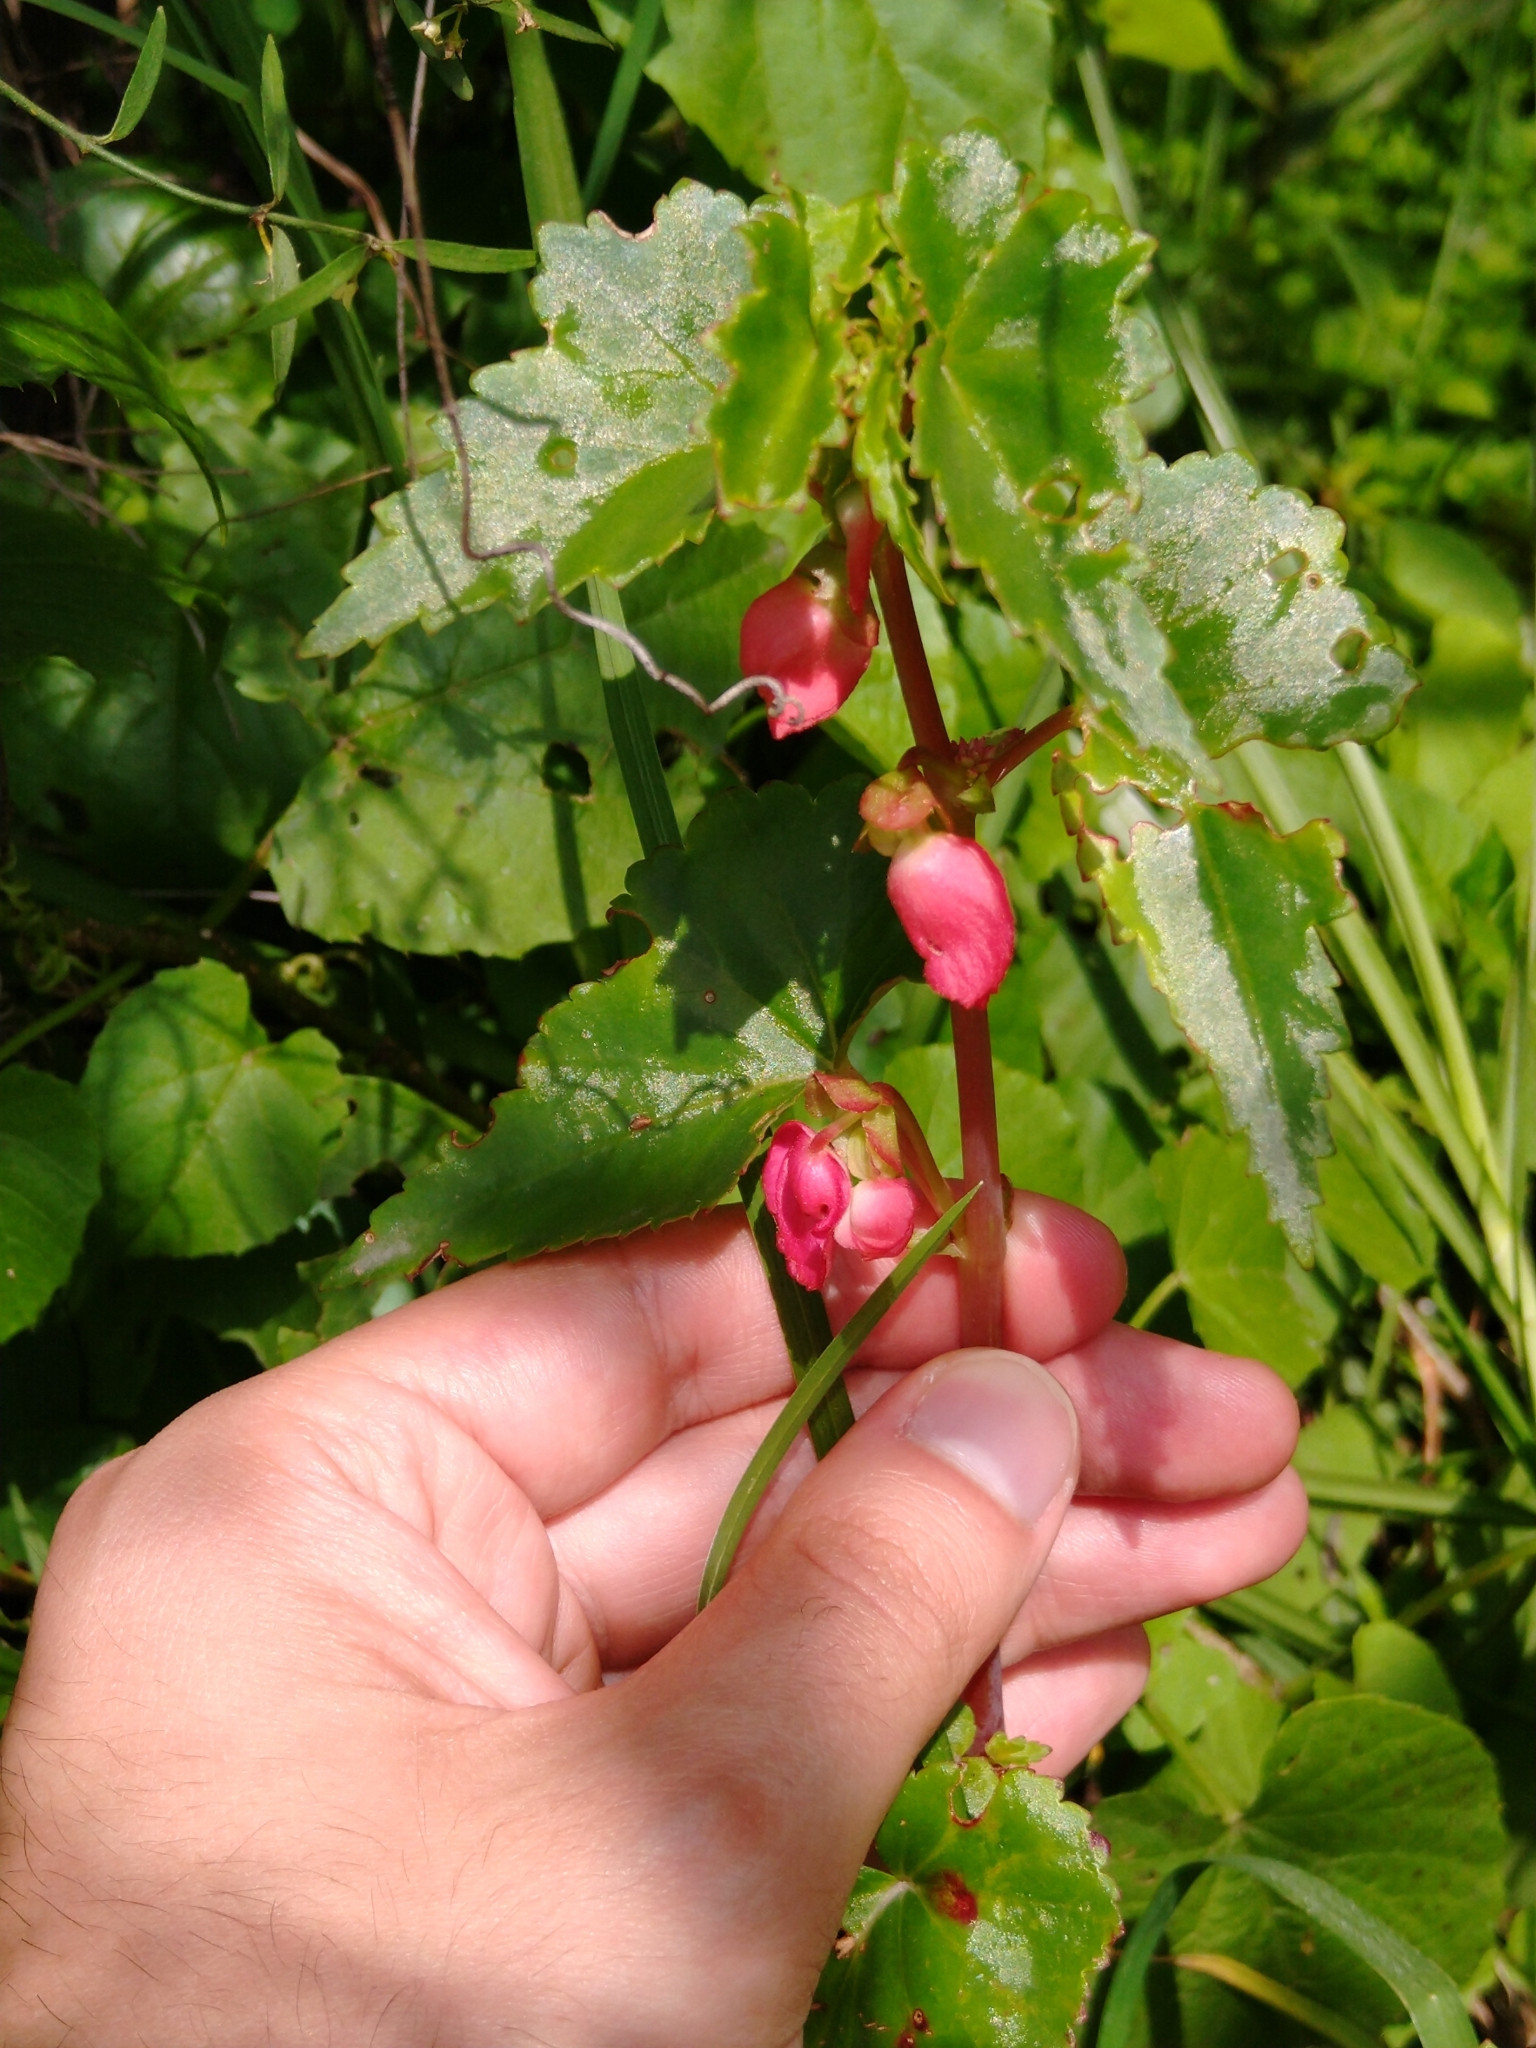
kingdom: Plantae
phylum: Tracheophyta
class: Magnoliopsida
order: Cucurbitales
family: Begoniaceae
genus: Begonia
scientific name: Begonia gracilis
